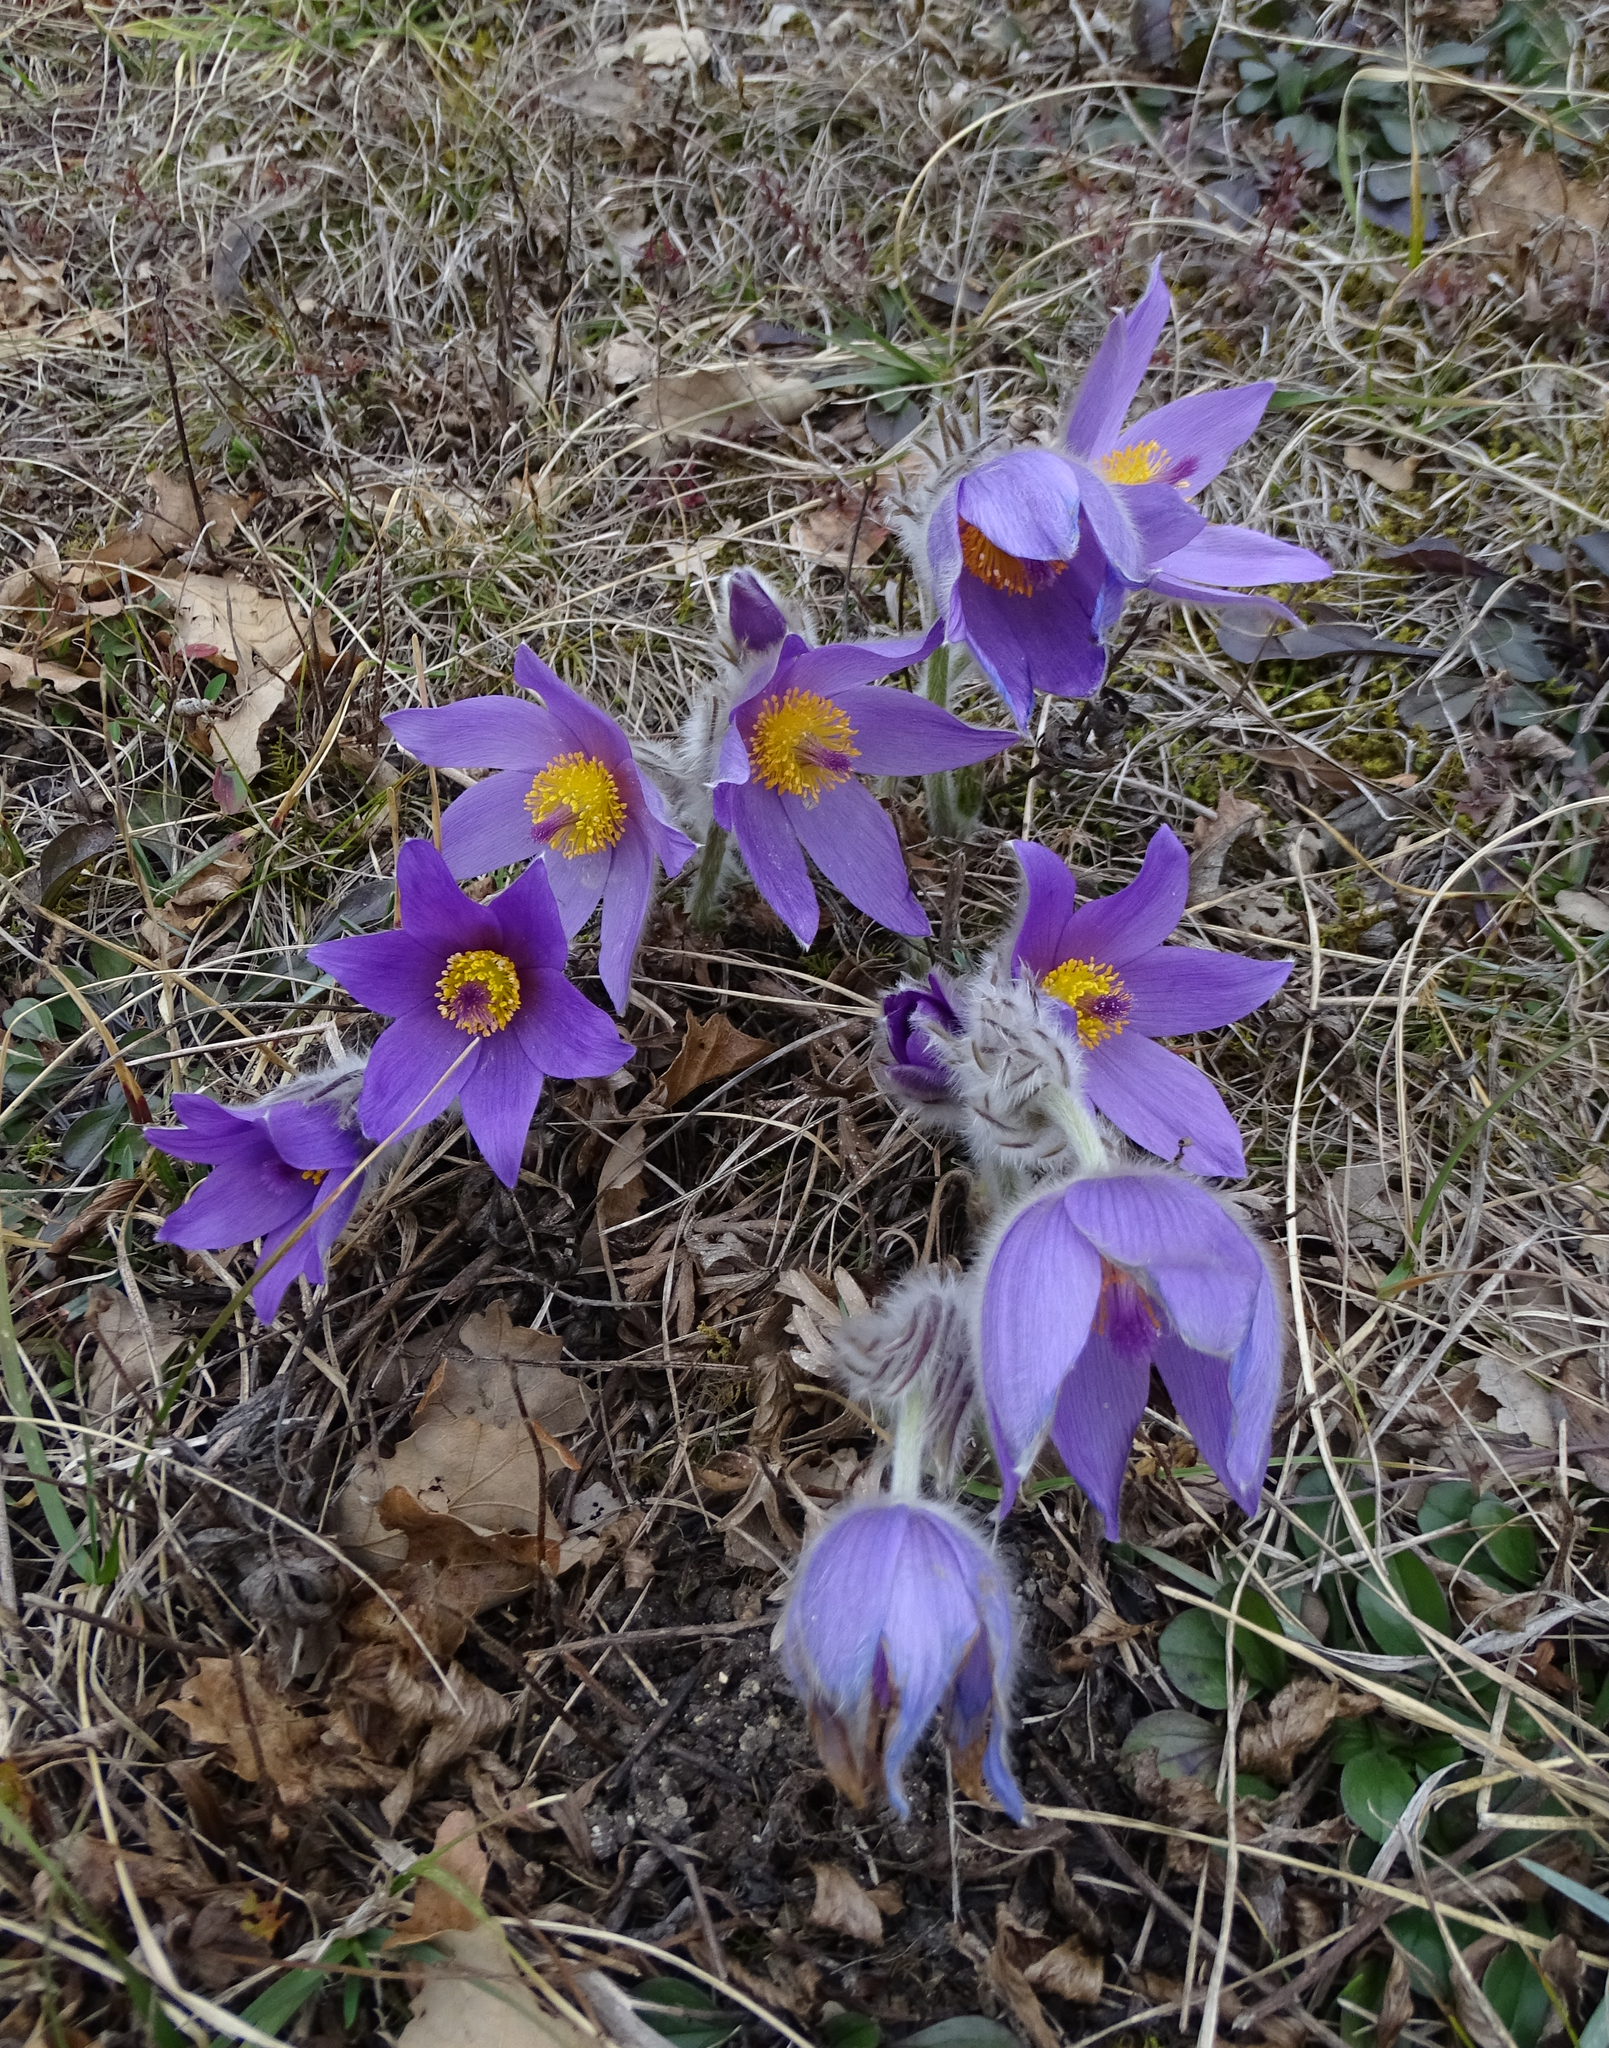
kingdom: Plantae
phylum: Tracheophyta
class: Magnoliopsida
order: Ranunculales
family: Ranunculaceae
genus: Pulsatilla
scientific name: Pulsatilla grandis
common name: Greater pasque flower
